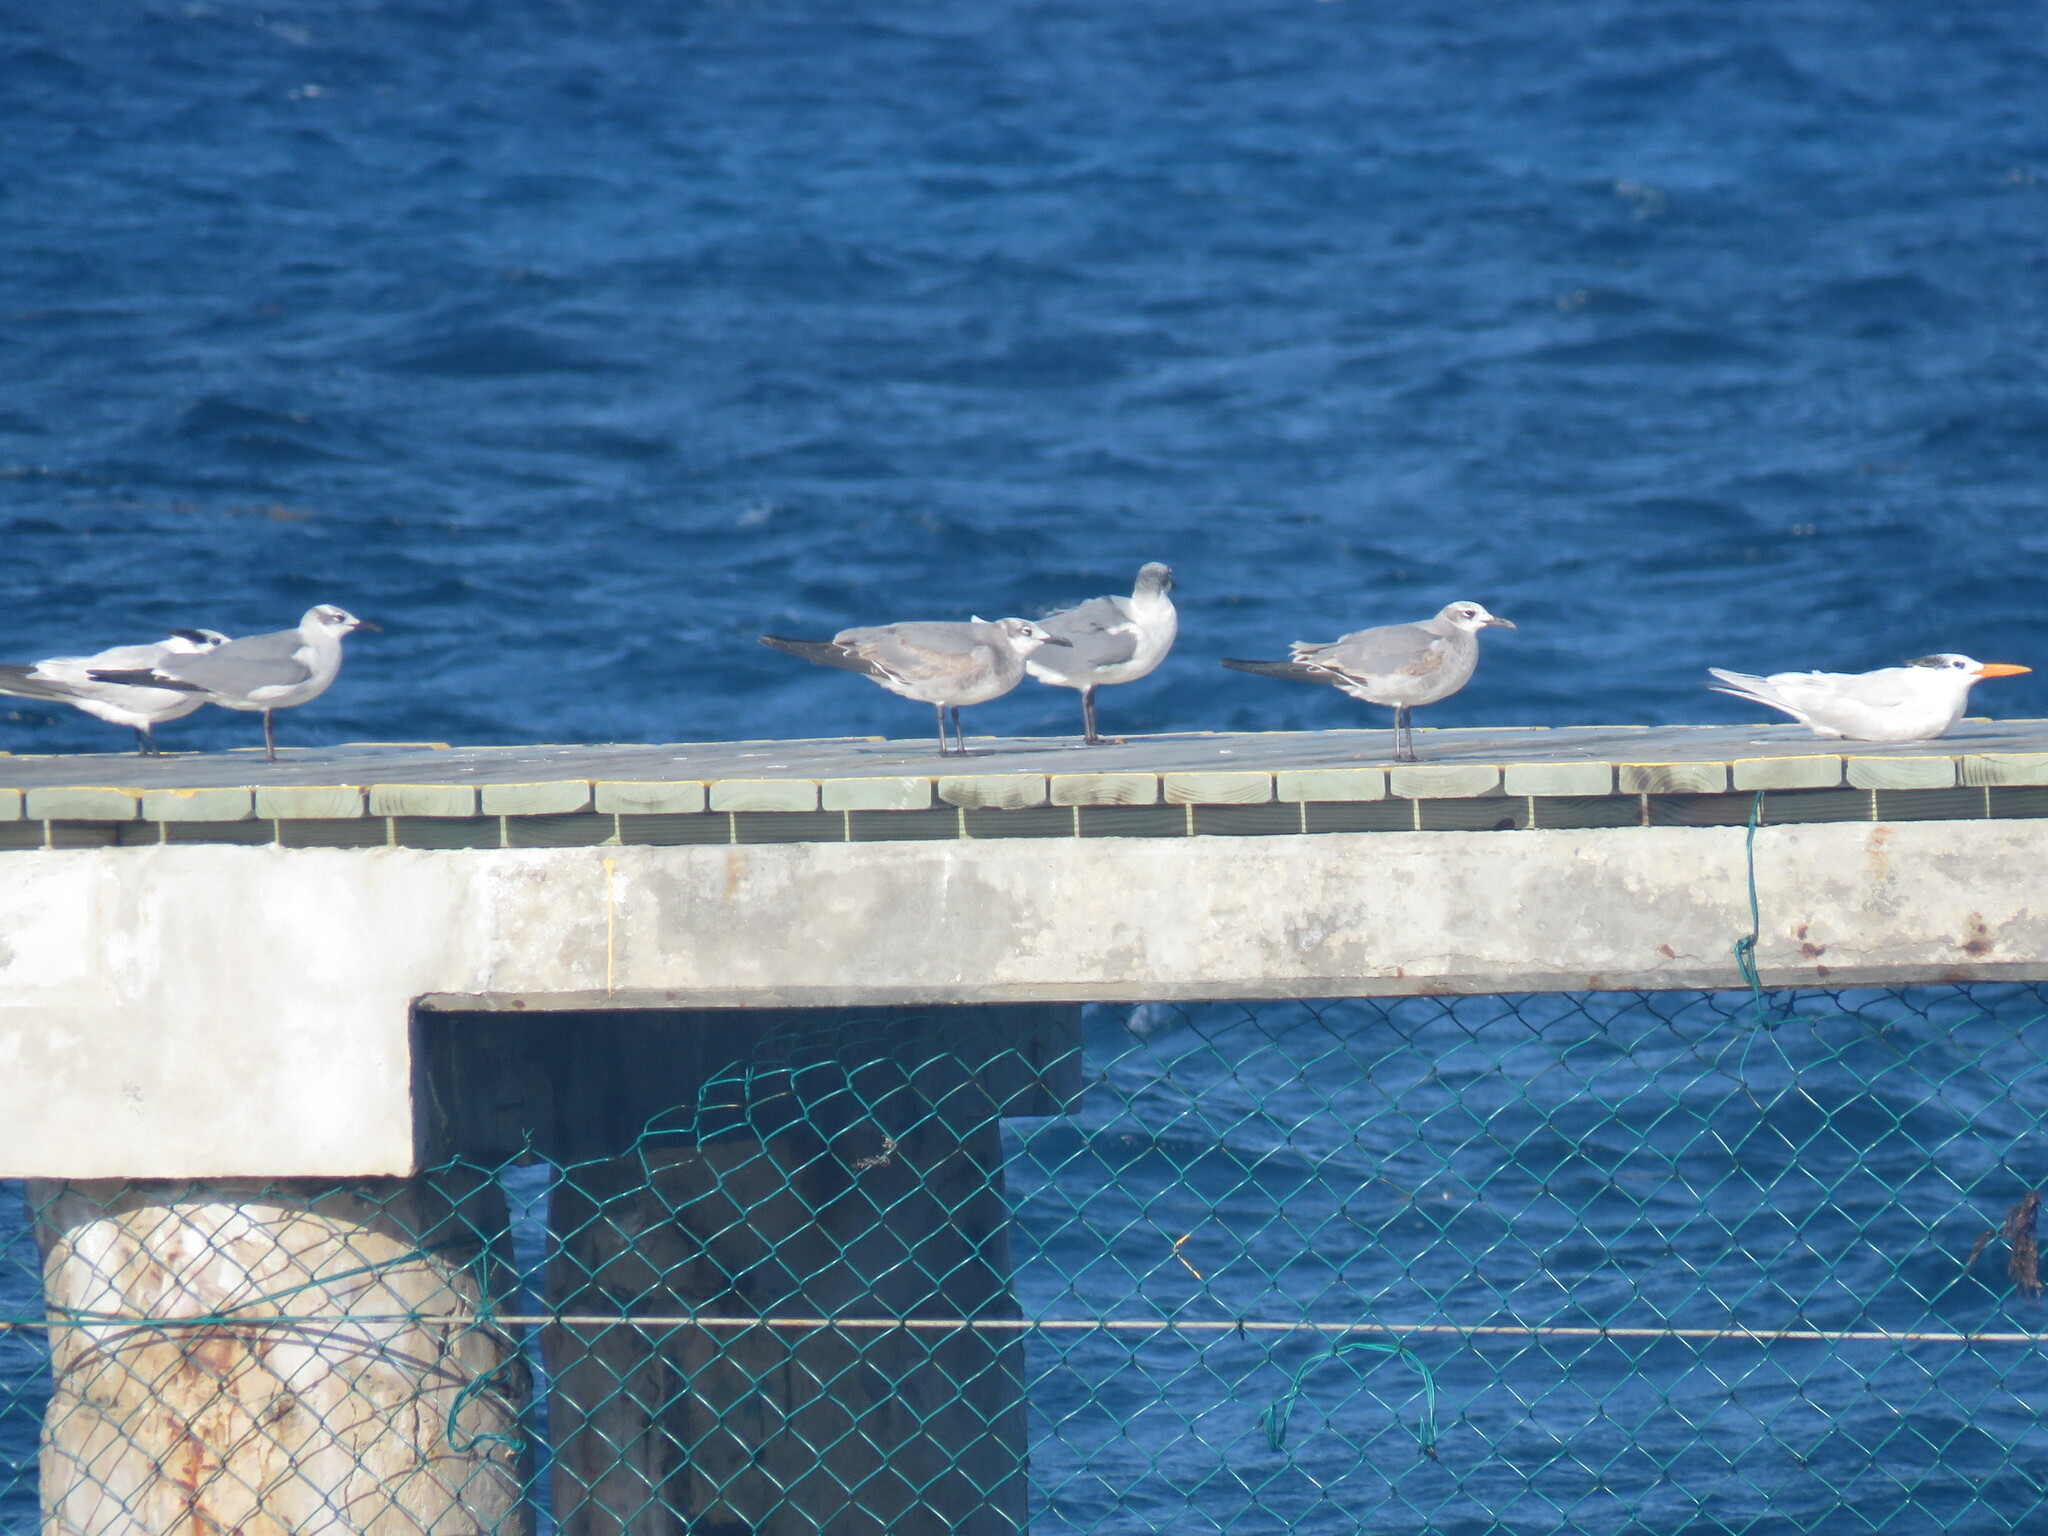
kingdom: Animalia
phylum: Chordata
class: Aves
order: Charadriiformes
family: Laridae
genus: Leucophaeus
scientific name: Leucophaeus atricilla
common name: Laughing gull
